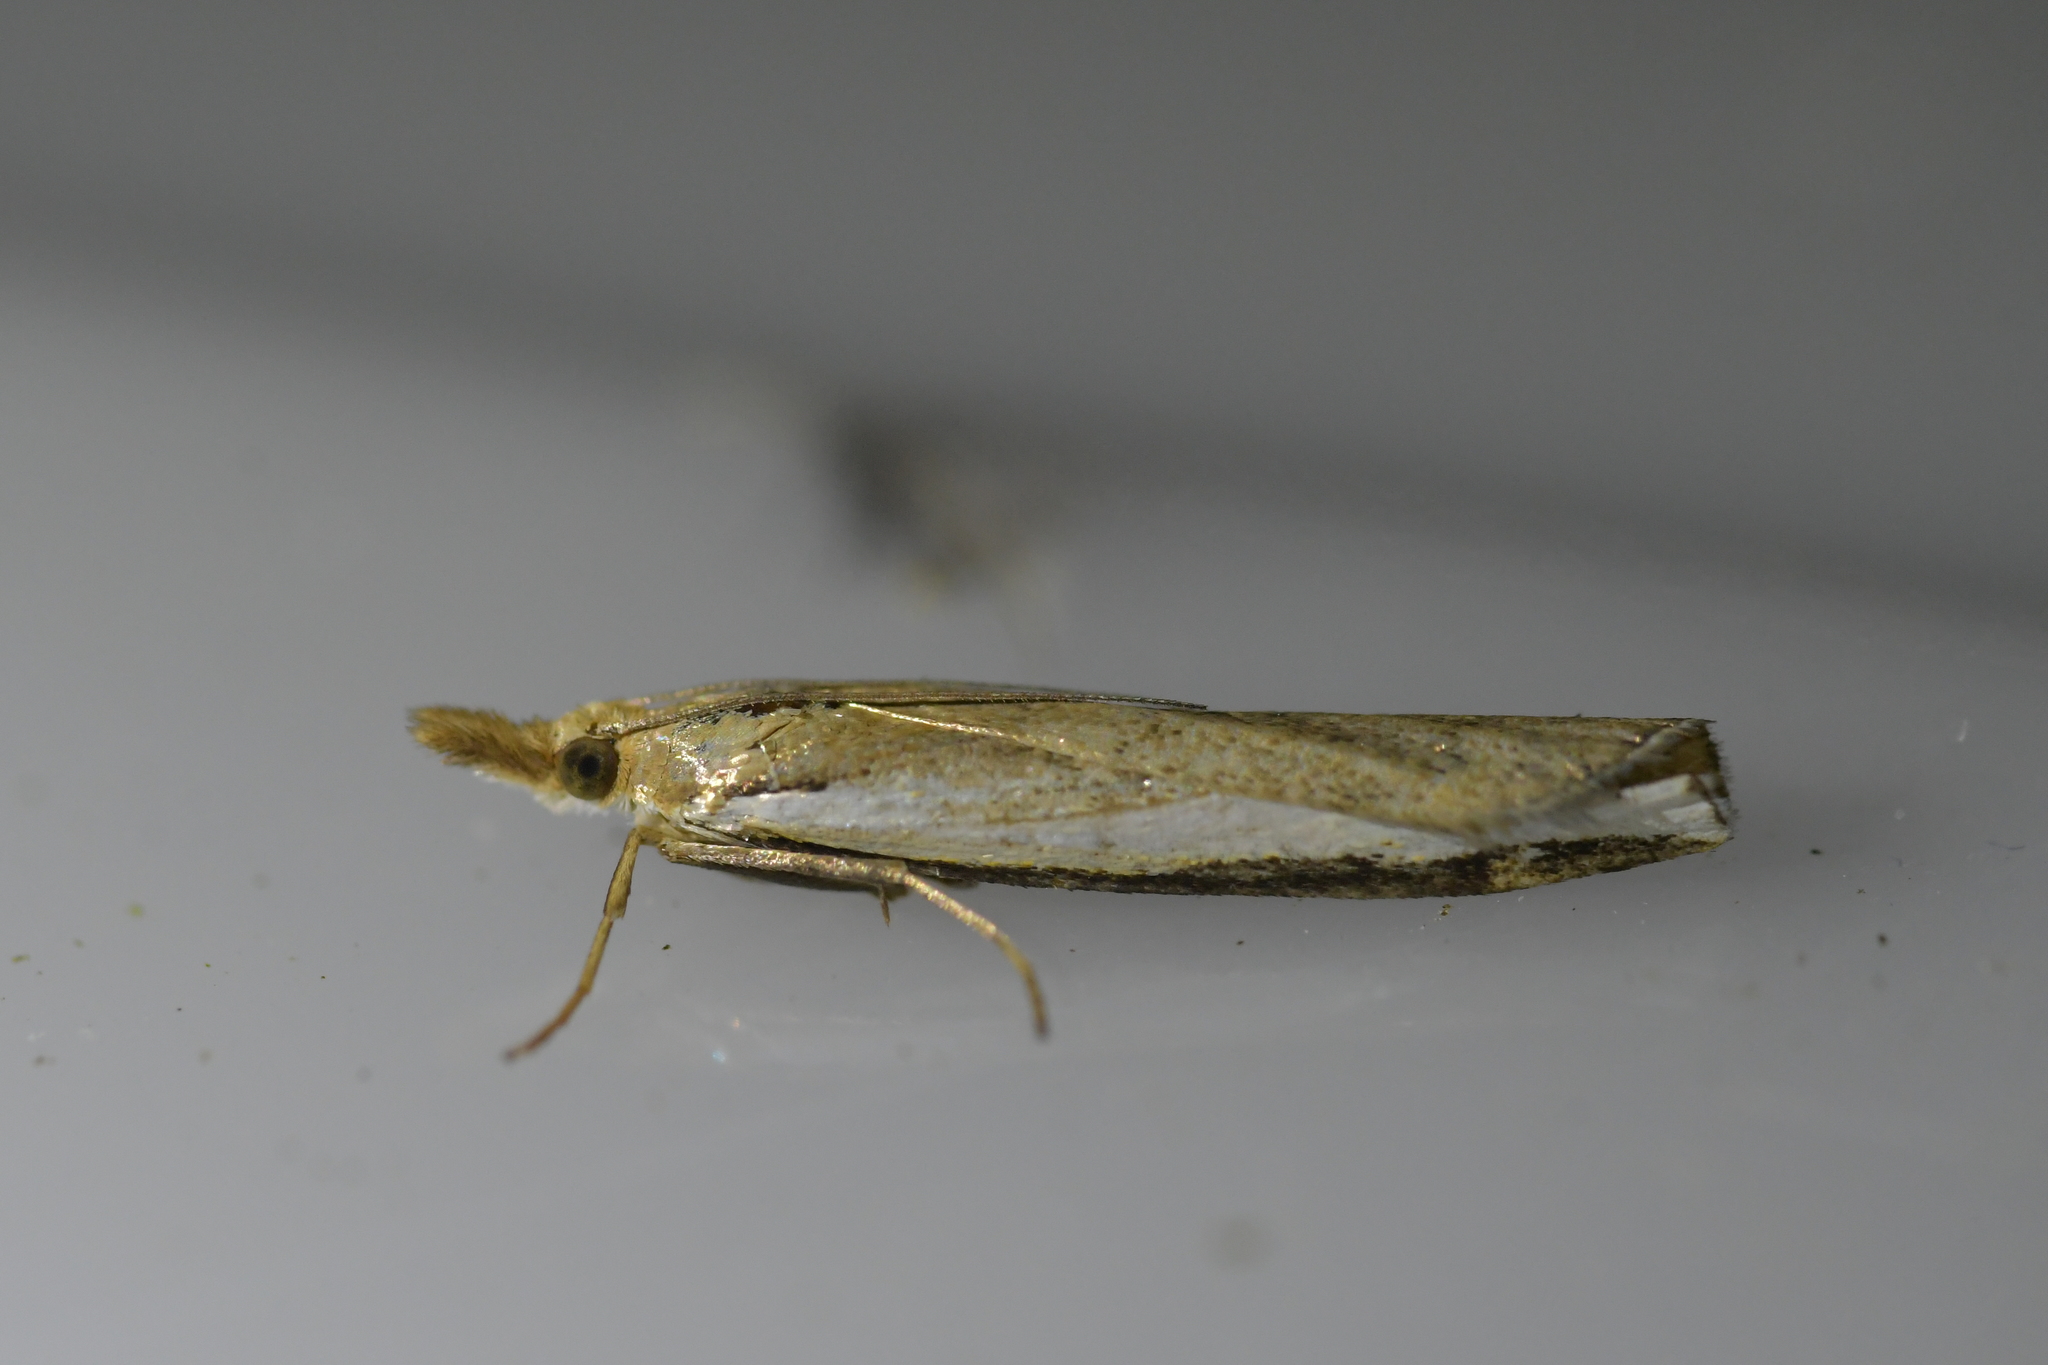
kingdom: Animalia
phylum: Arthropoda
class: Insecta
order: Lepidoptera
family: Crambidae
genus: Orocrambus
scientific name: Orocrambus flexuosellus
